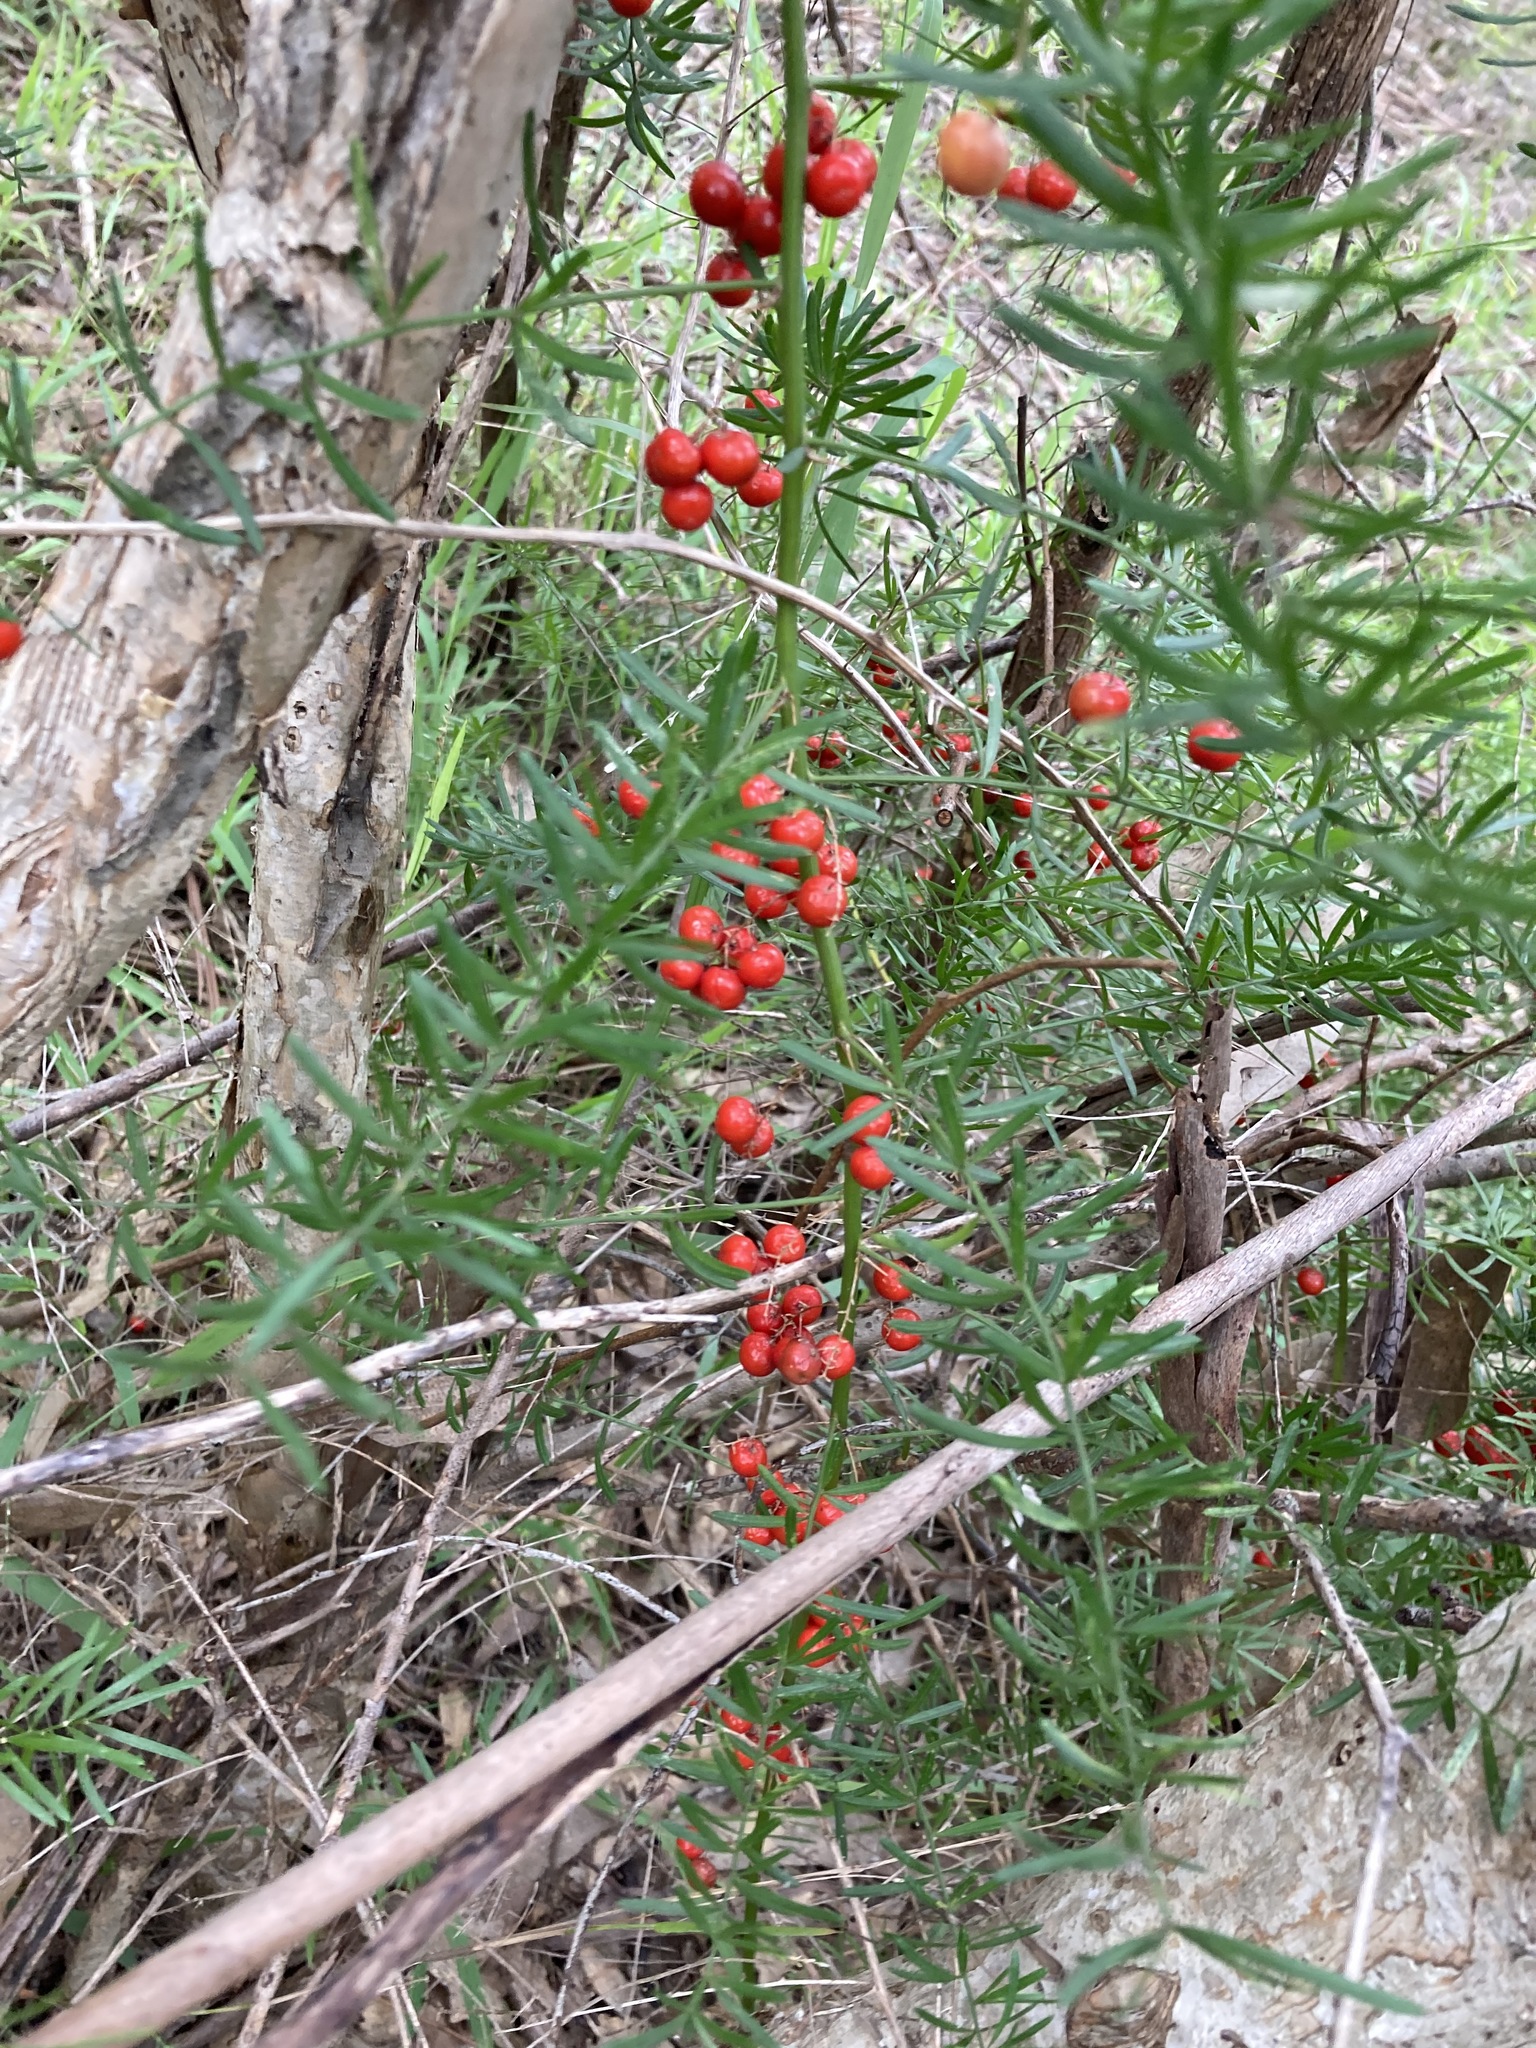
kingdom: Plantae
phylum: Tracheophyta
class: Liliopsida
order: Asparagales
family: Asparagaceae
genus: Asparagus
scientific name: Asparagus aethiopicus
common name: Sprenger's asparagus fern
